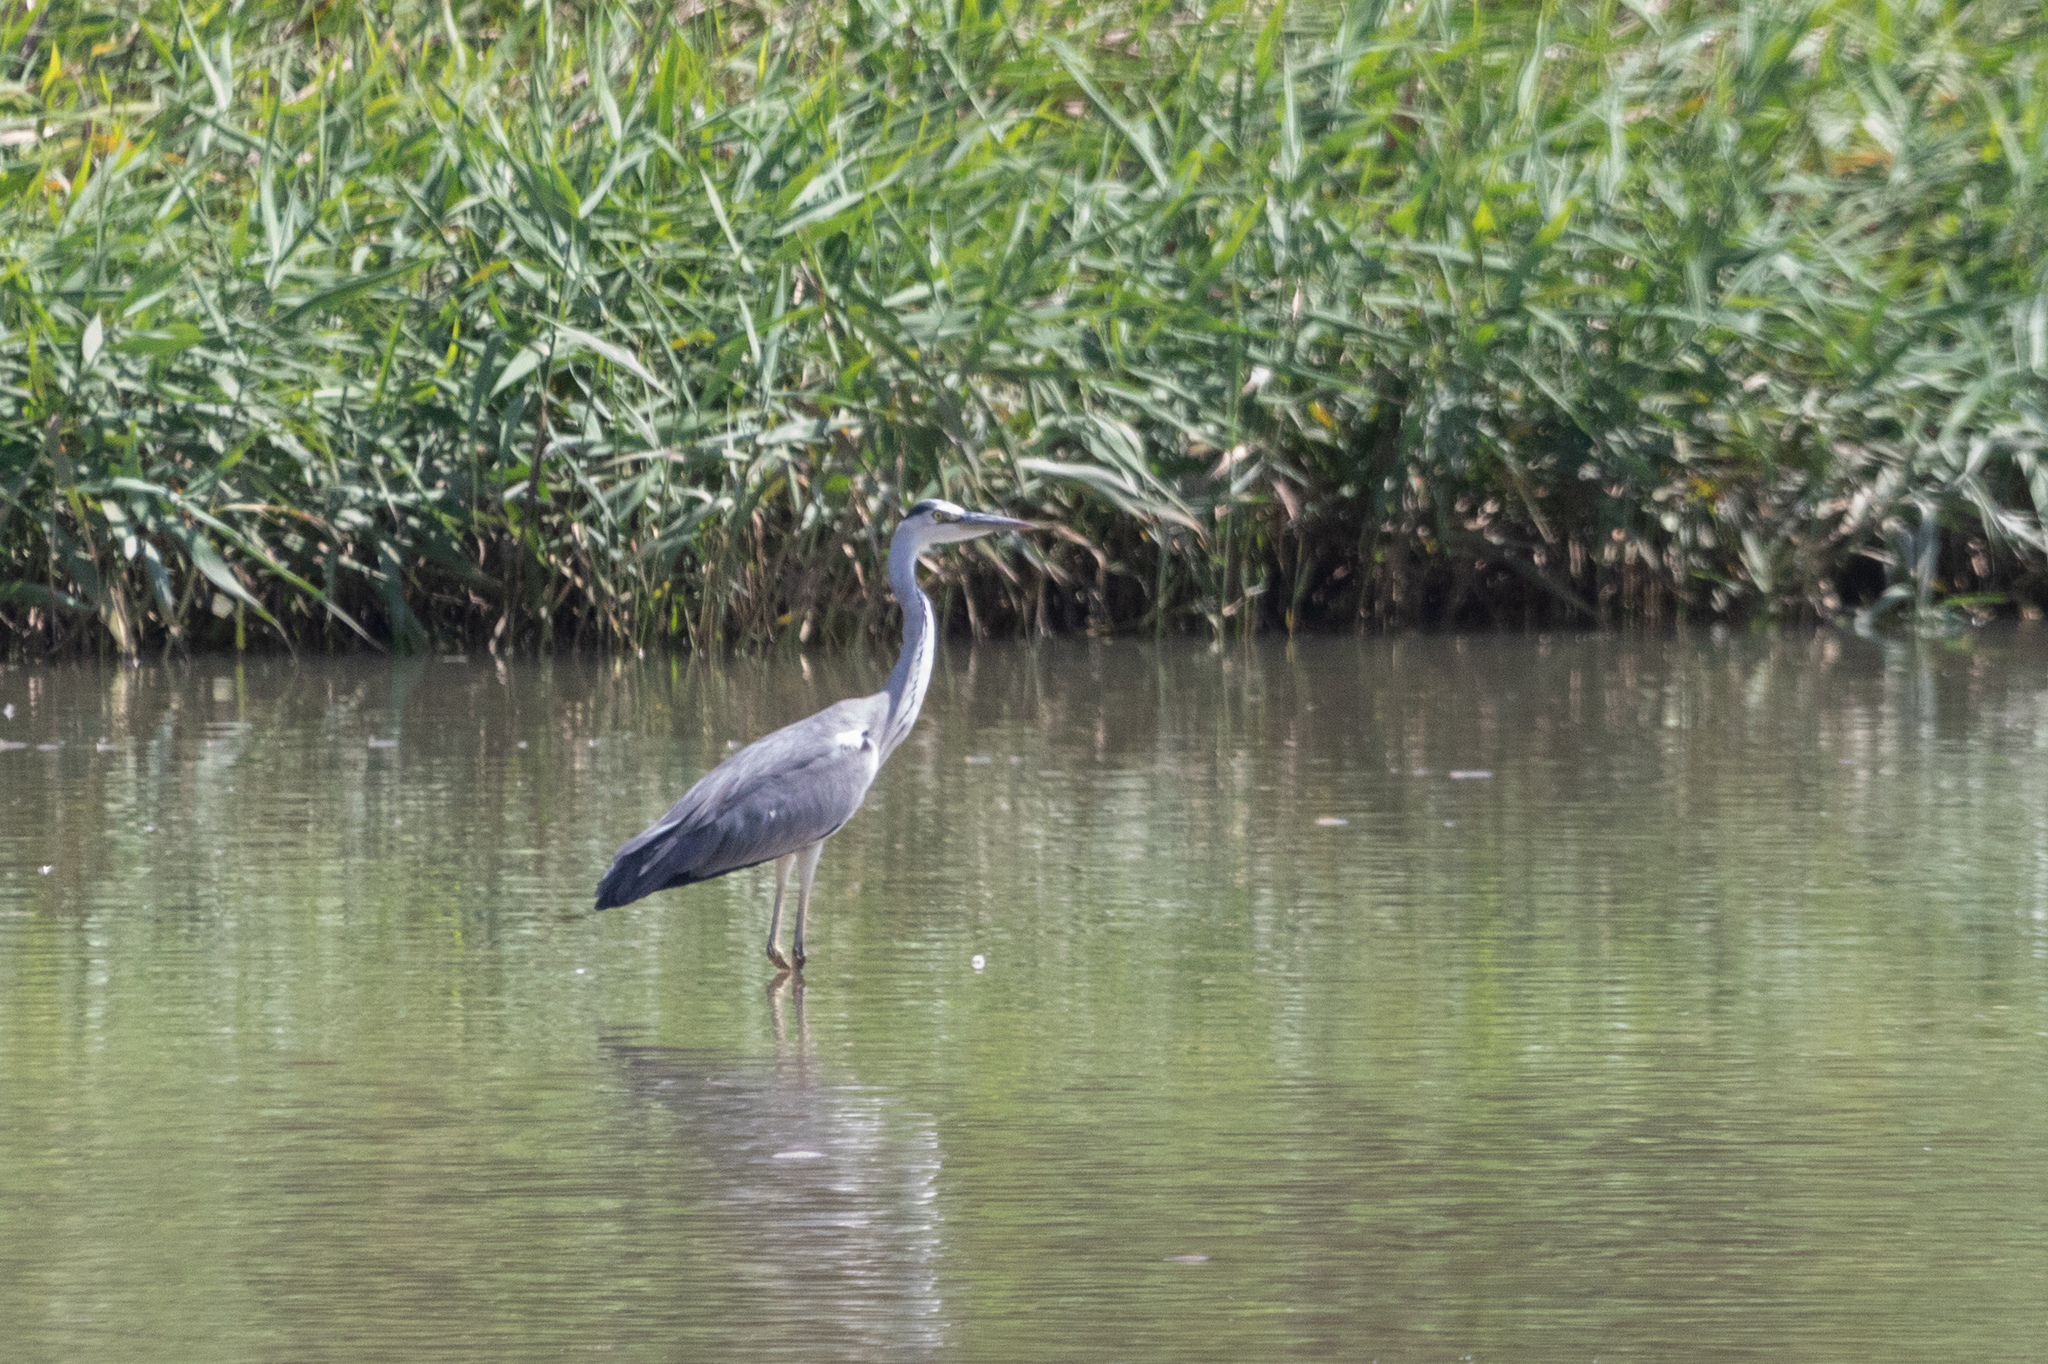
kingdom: Animalia
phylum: Chordata
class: Aves
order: Pelecaniformes
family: Ardeidae
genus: Ardea
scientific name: Ardea cinerea
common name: Grey heron
